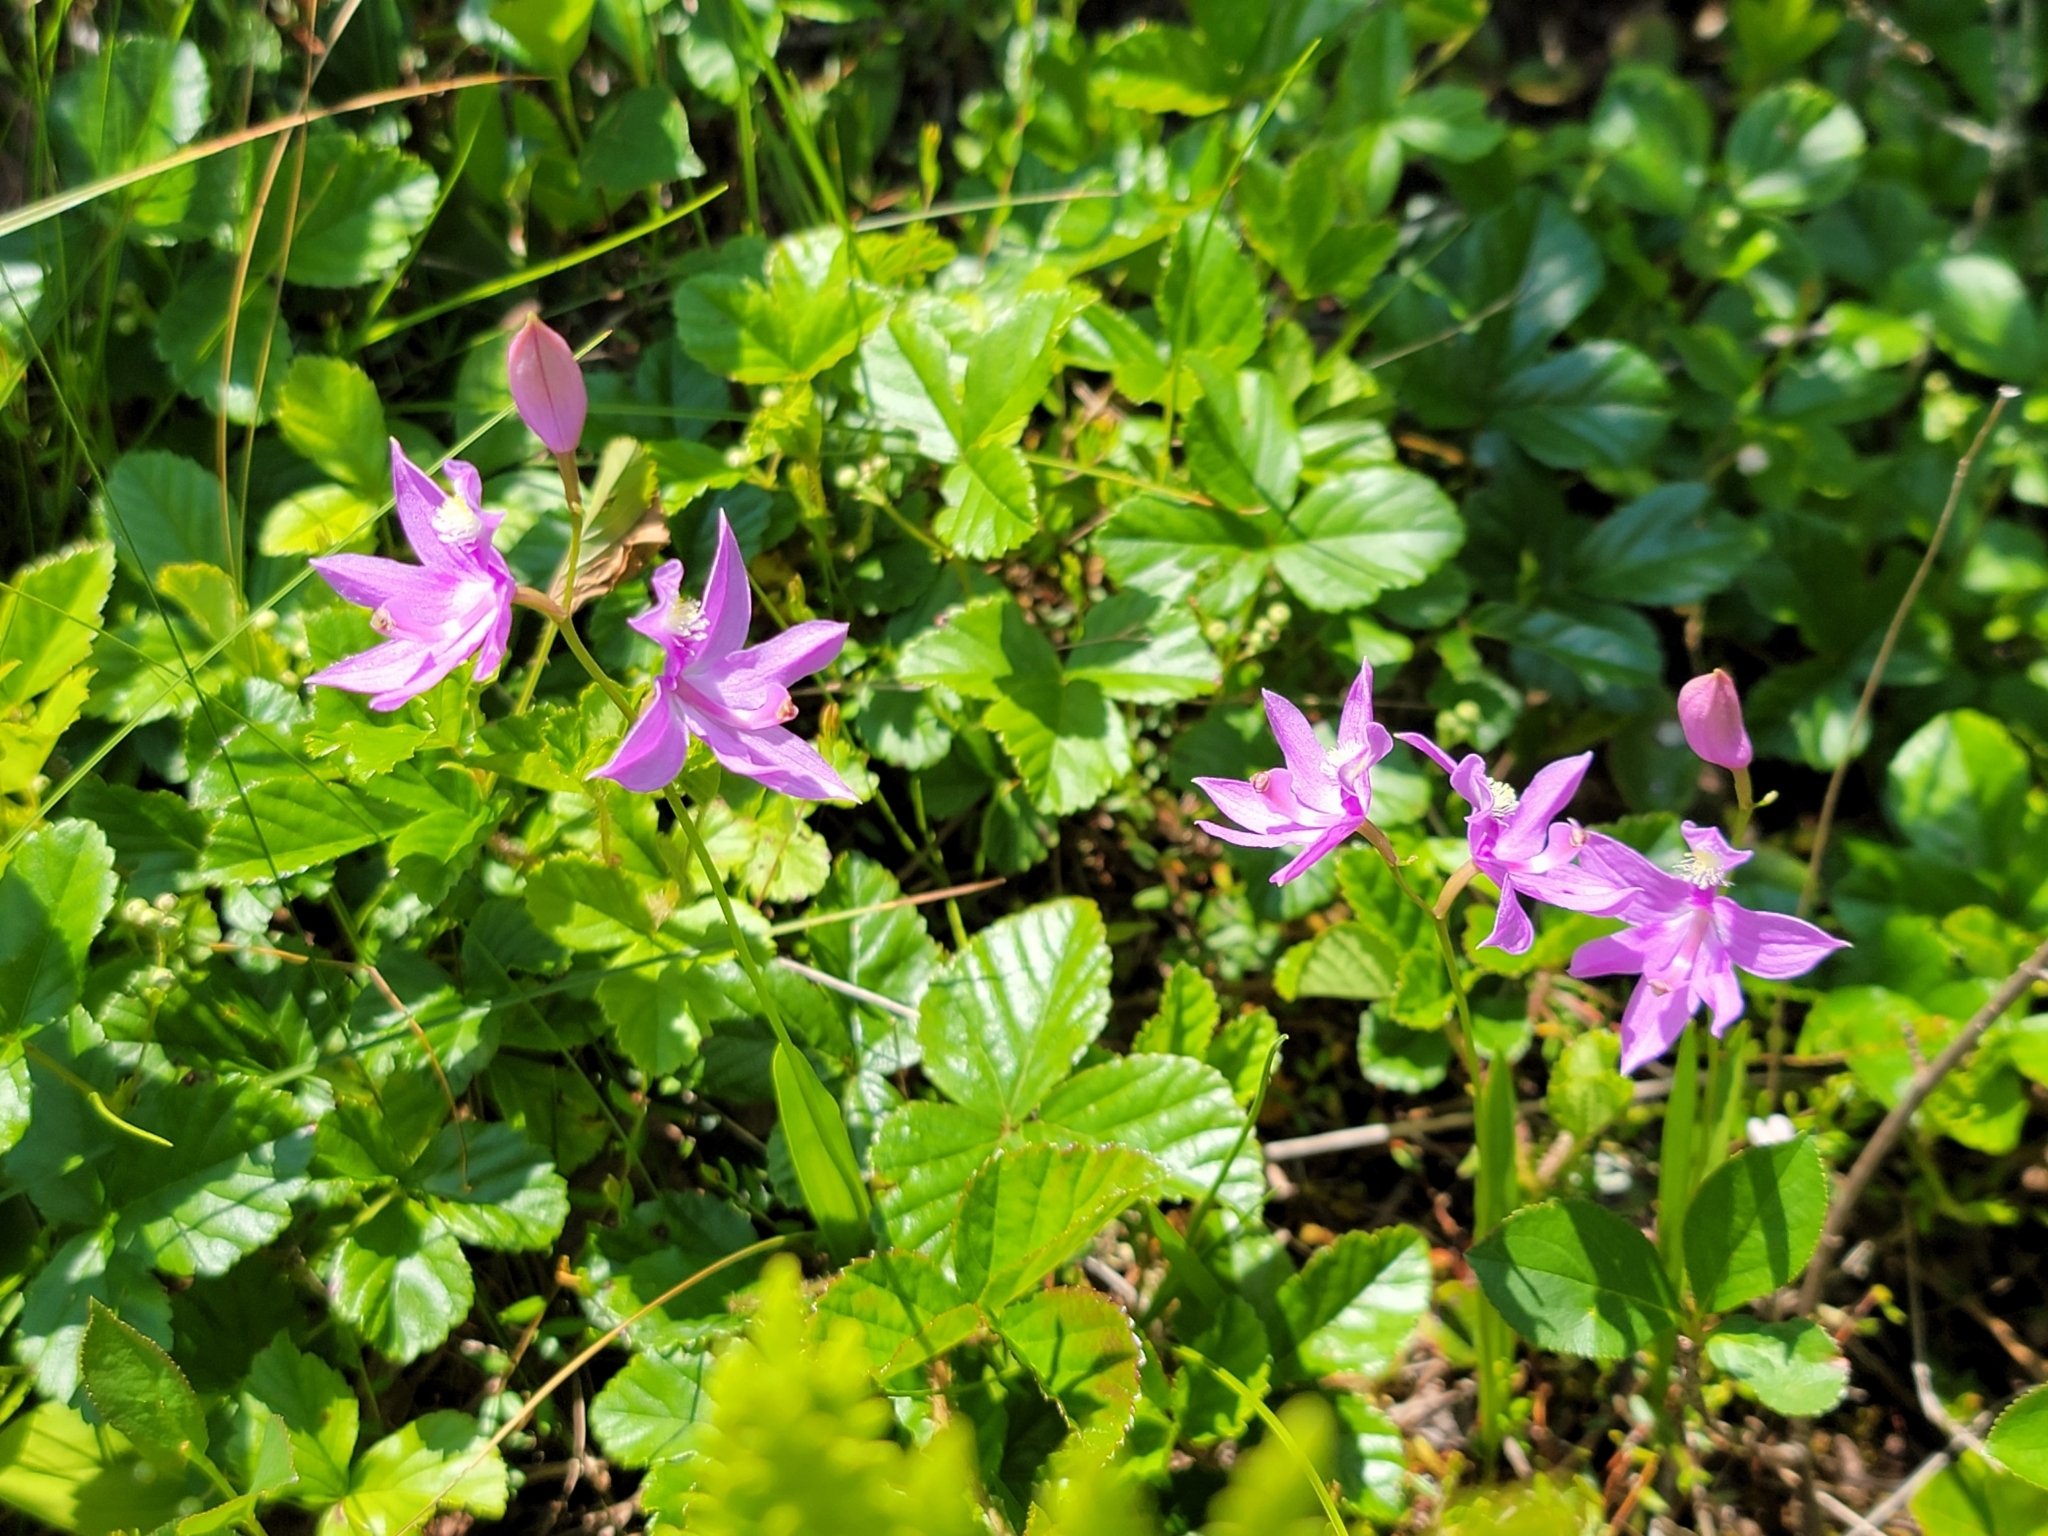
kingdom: Plantae
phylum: Tracheophyta
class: Liliopsida
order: Asparagales
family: Orchidaceae
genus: Calopogon
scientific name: Calopogon tuberosus
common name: Grass-pink
